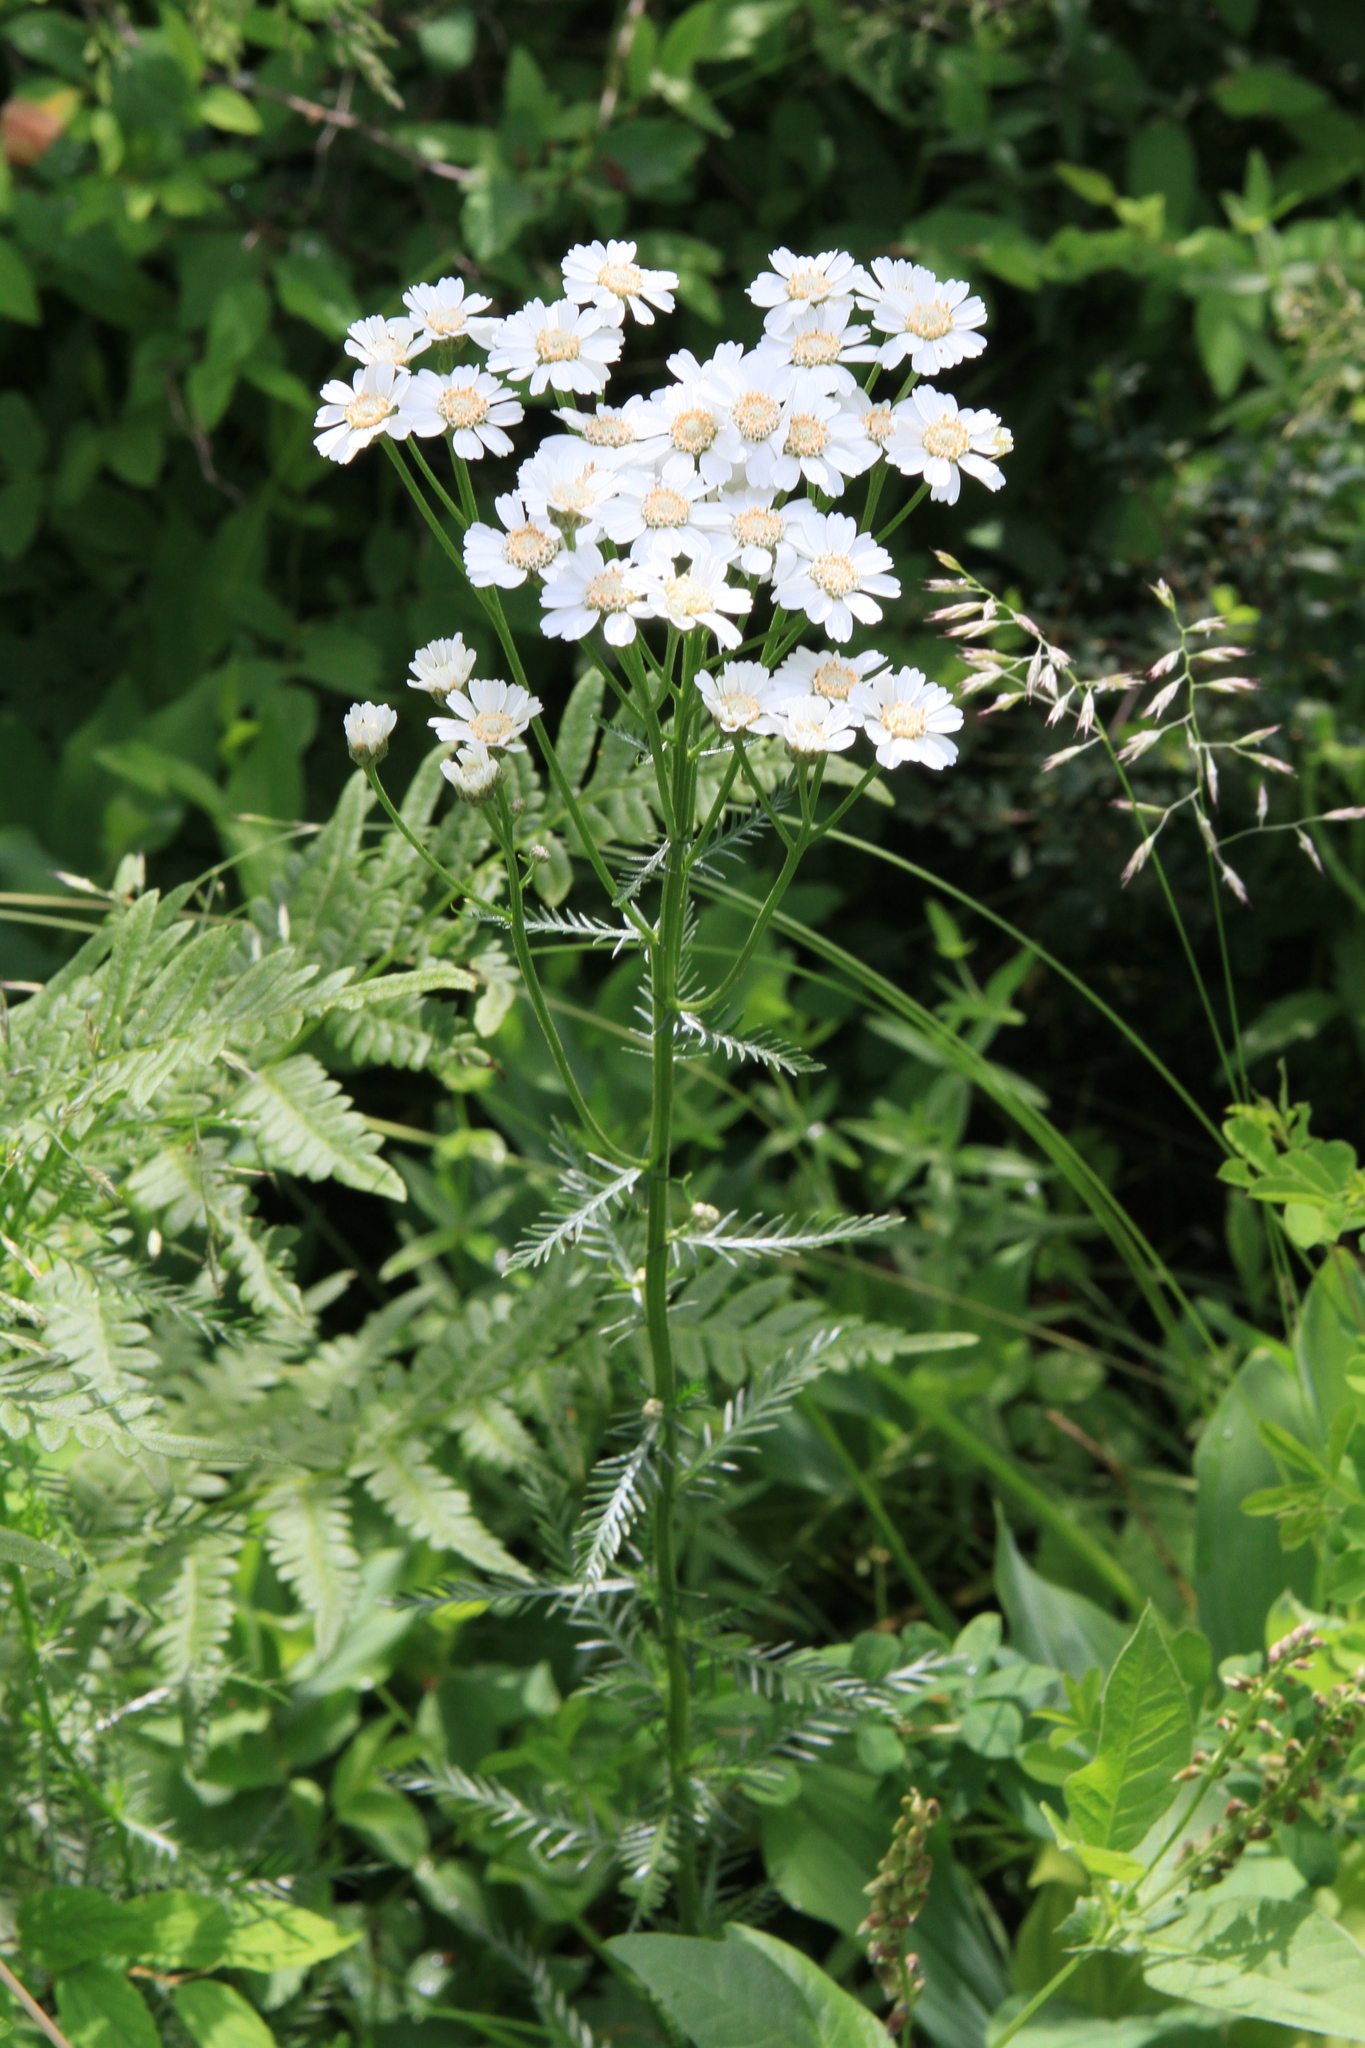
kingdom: Plantae
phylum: Tracheophyta
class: Magnoliopsida
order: Asterales
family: Asteraceae
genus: Achillea
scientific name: Achillea impatiens
